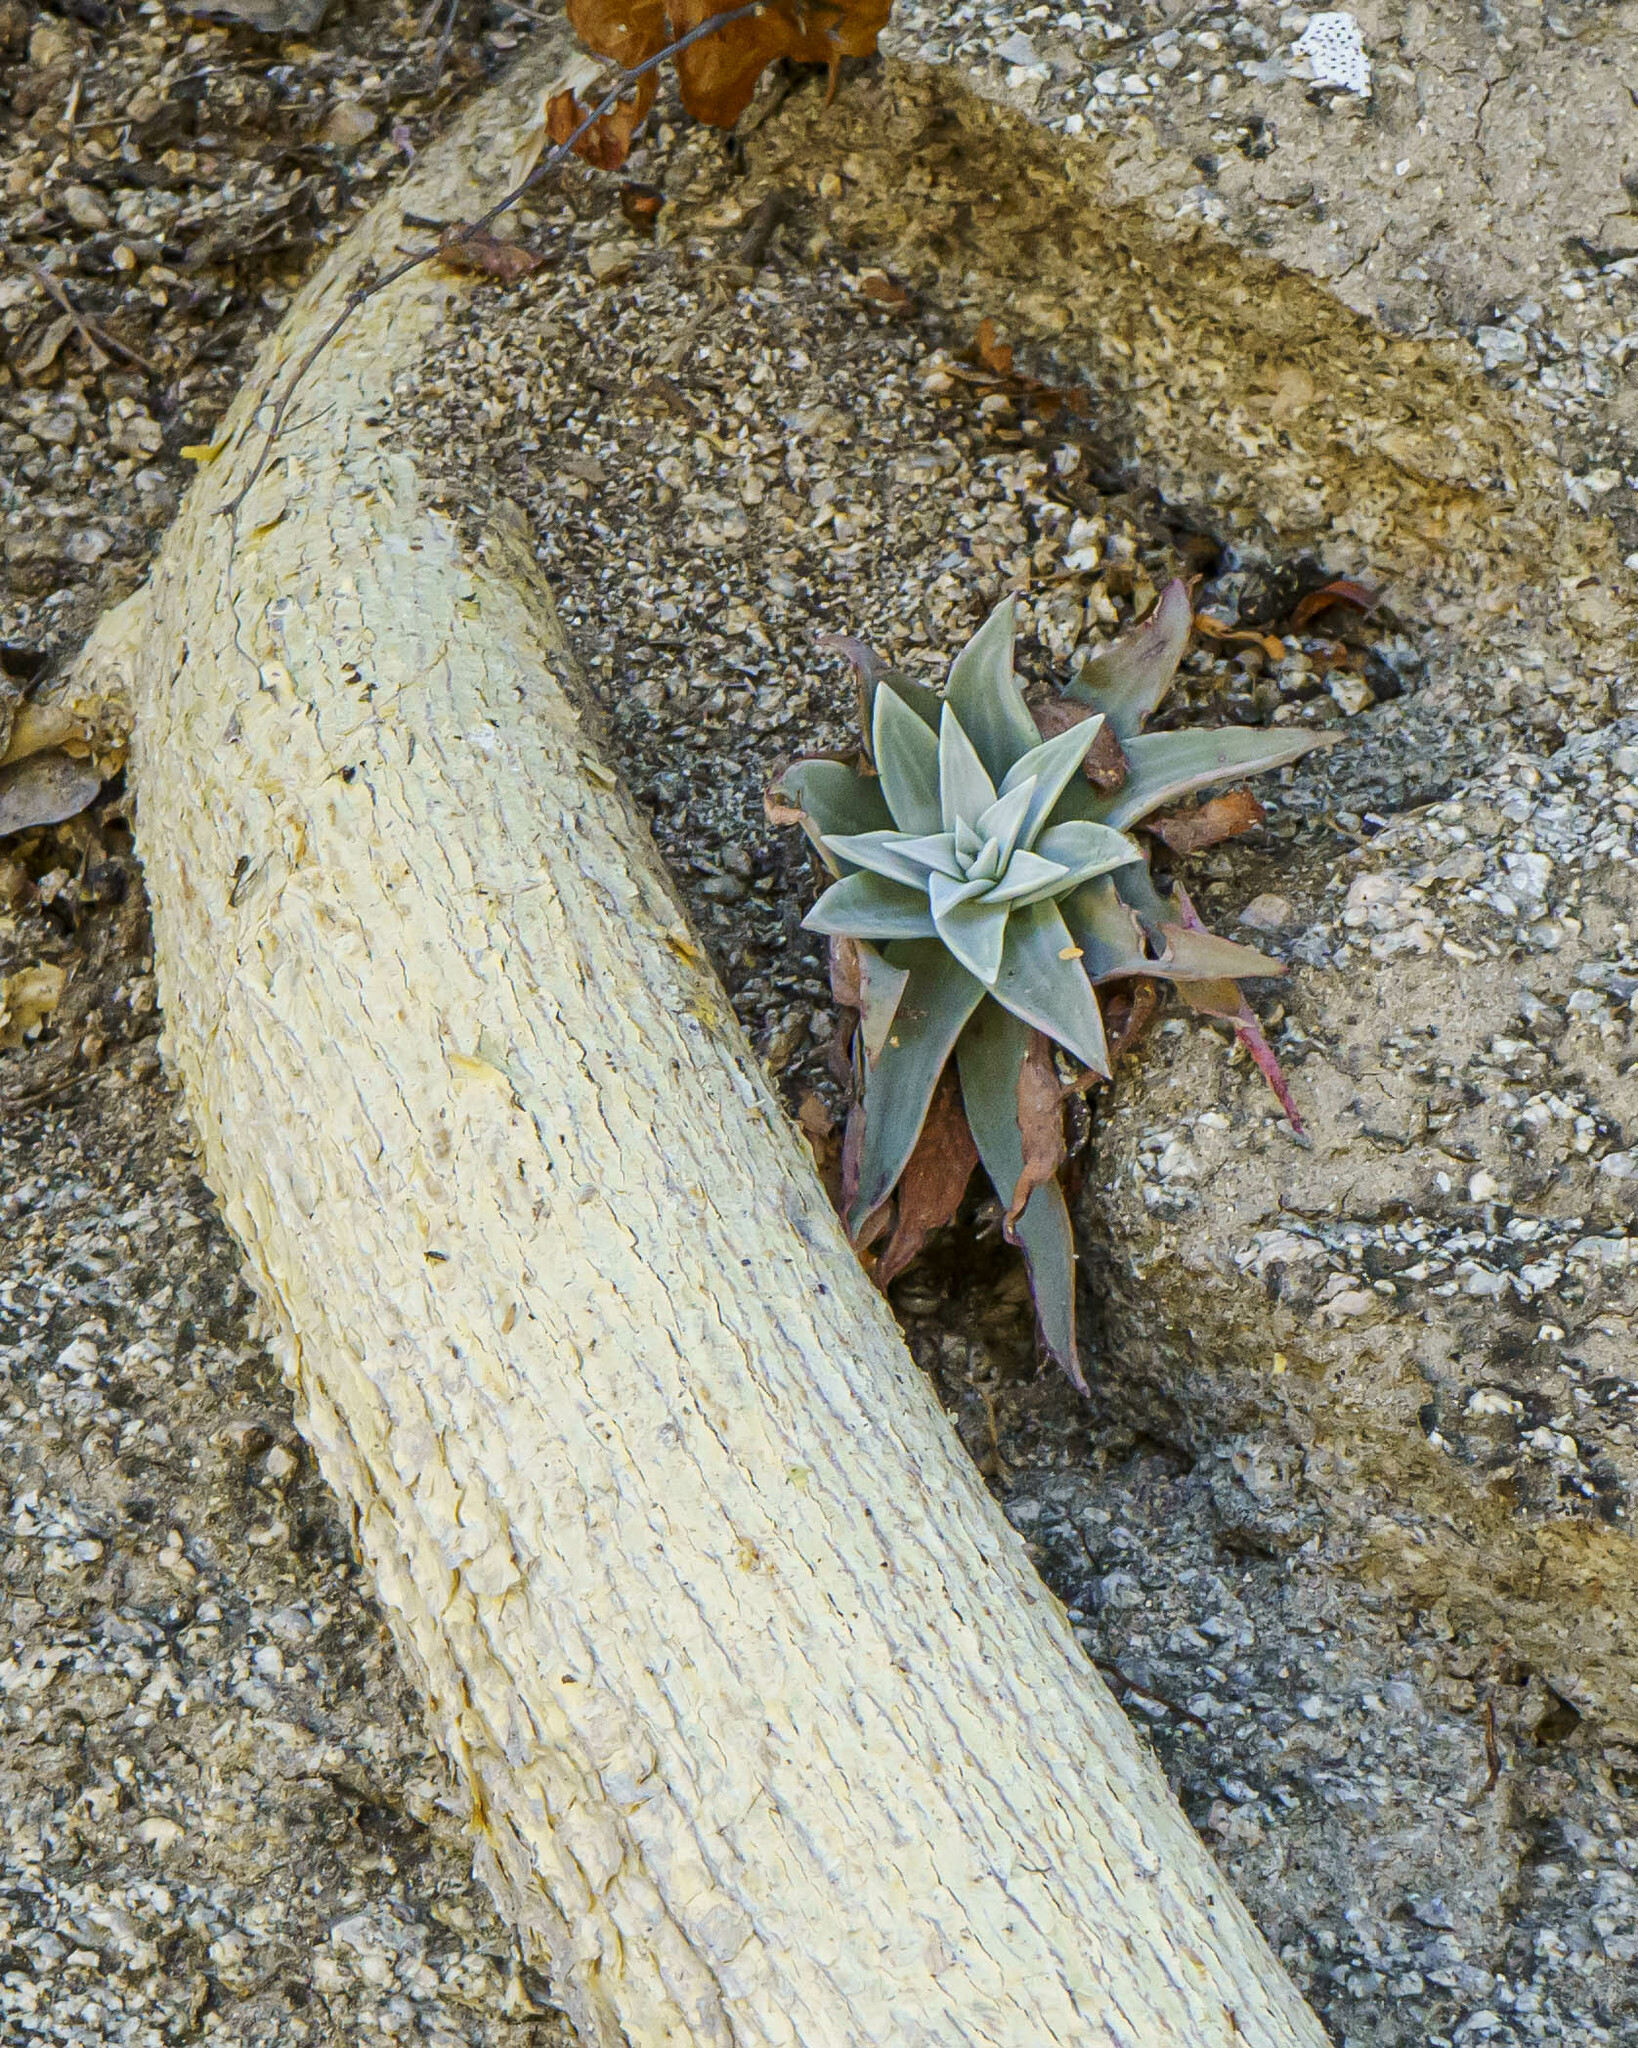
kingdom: Plantae
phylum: Tracheophyta
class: Magnoliopsida
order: Saxifragales
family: Crassulaceae
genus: Dudleya
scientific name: Dudleya nubigena
